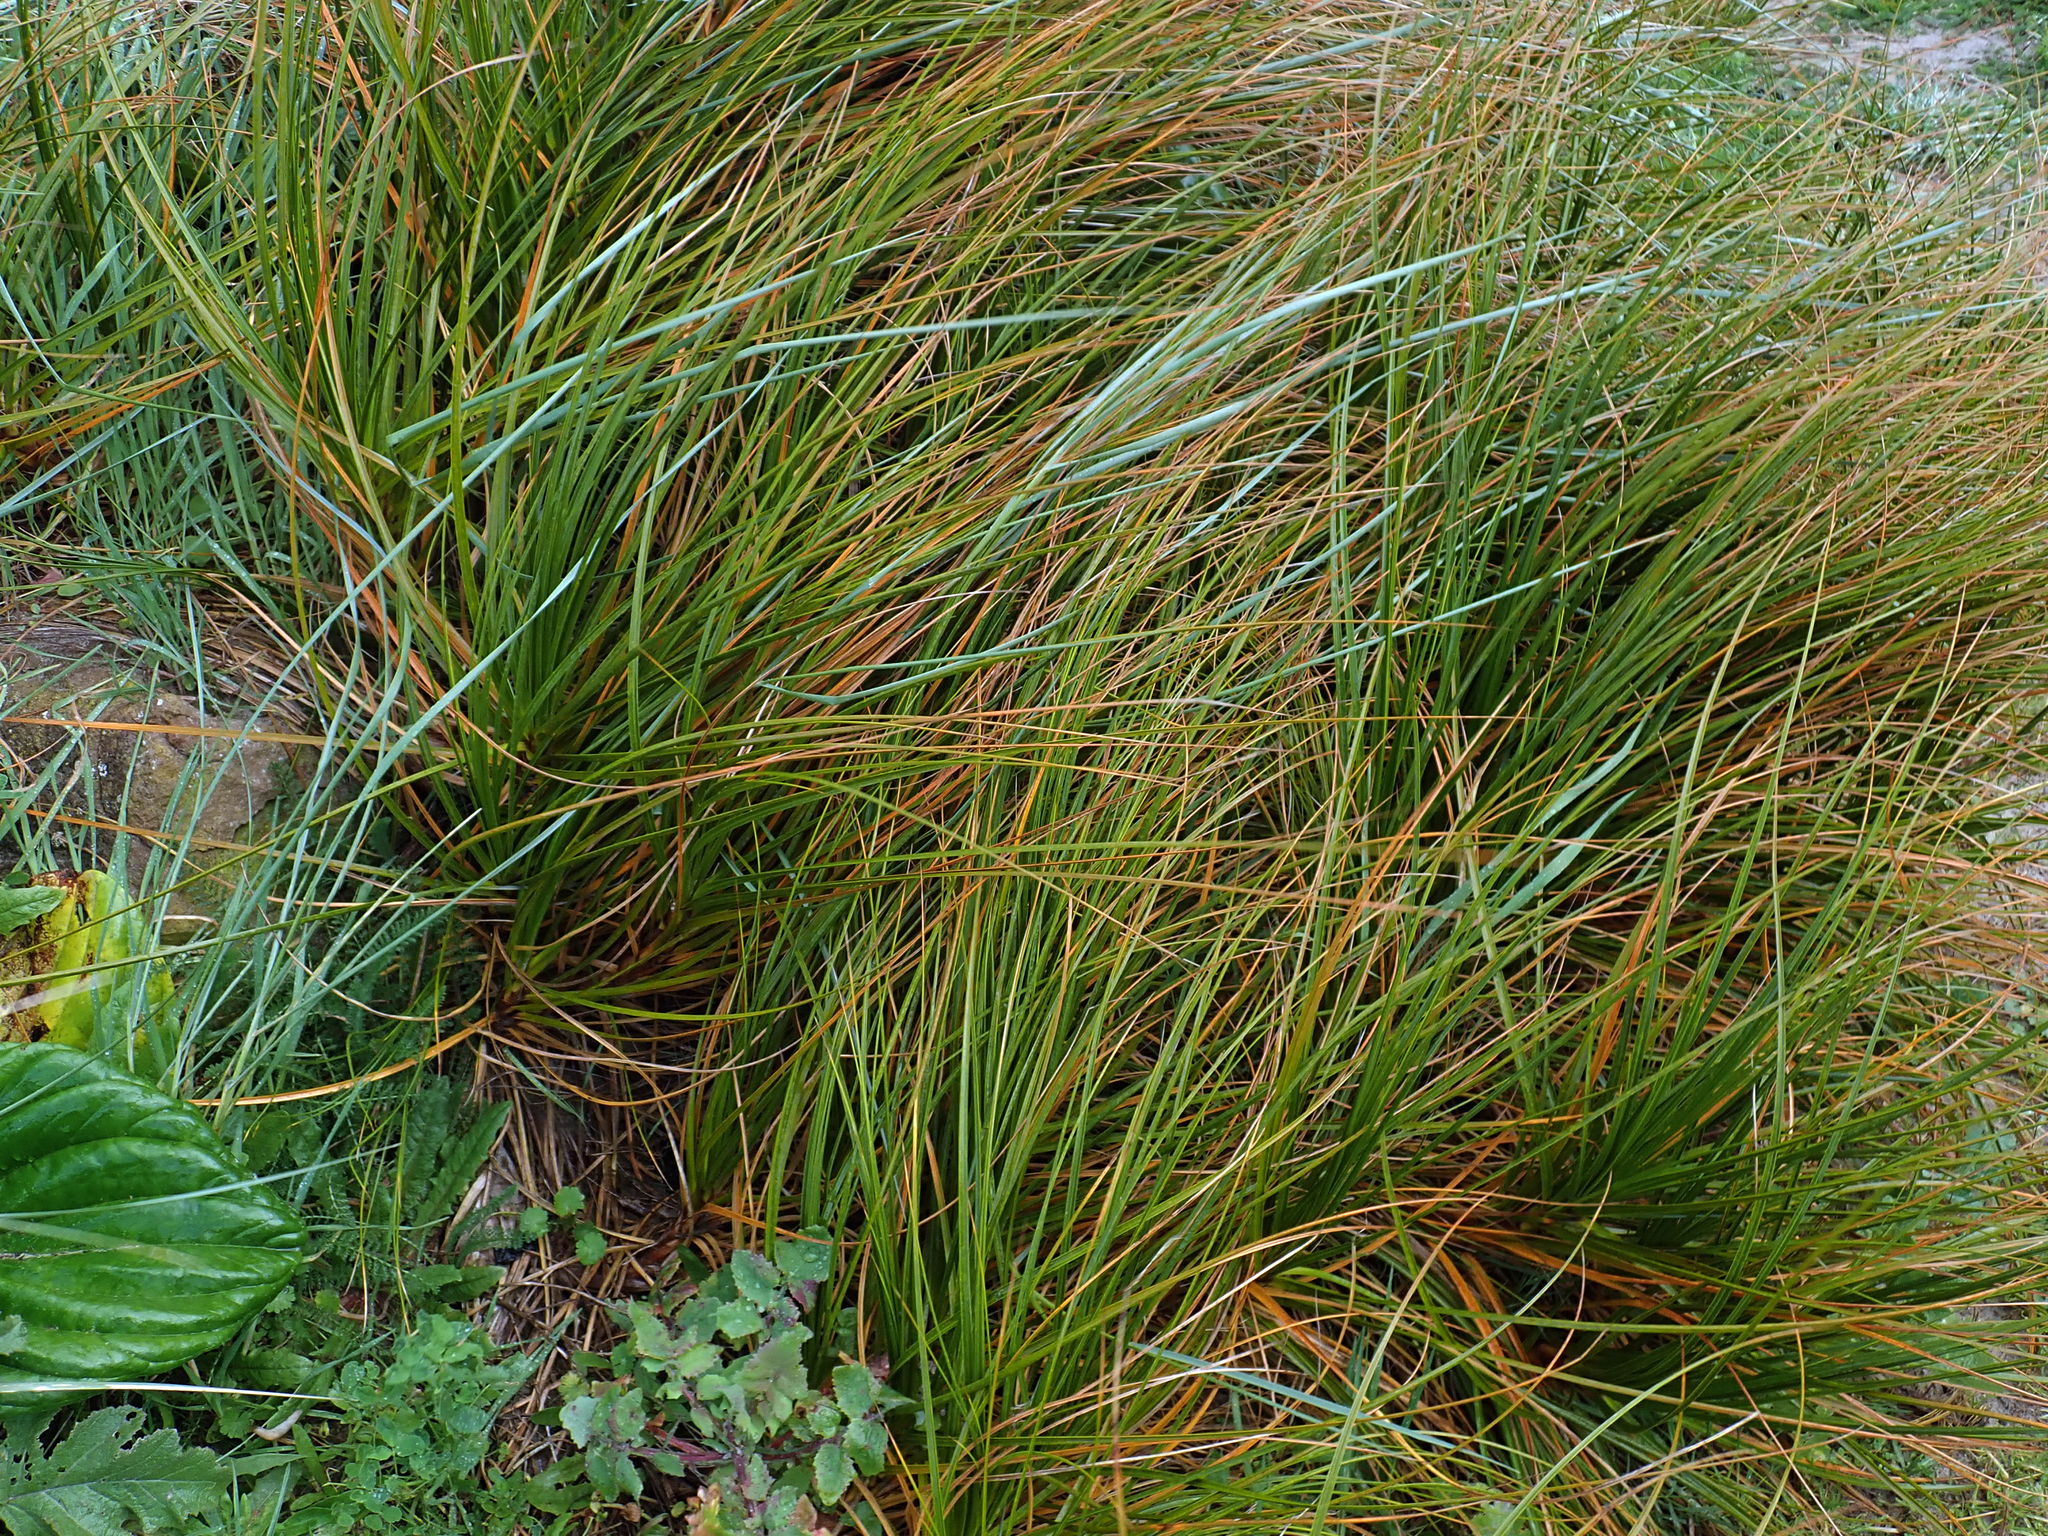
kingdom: Plantae
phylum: Tracheophyta
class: Liliopsida
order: Poales
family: Cyperaceae
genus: Ficinia
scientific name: Ficinia spiralis
